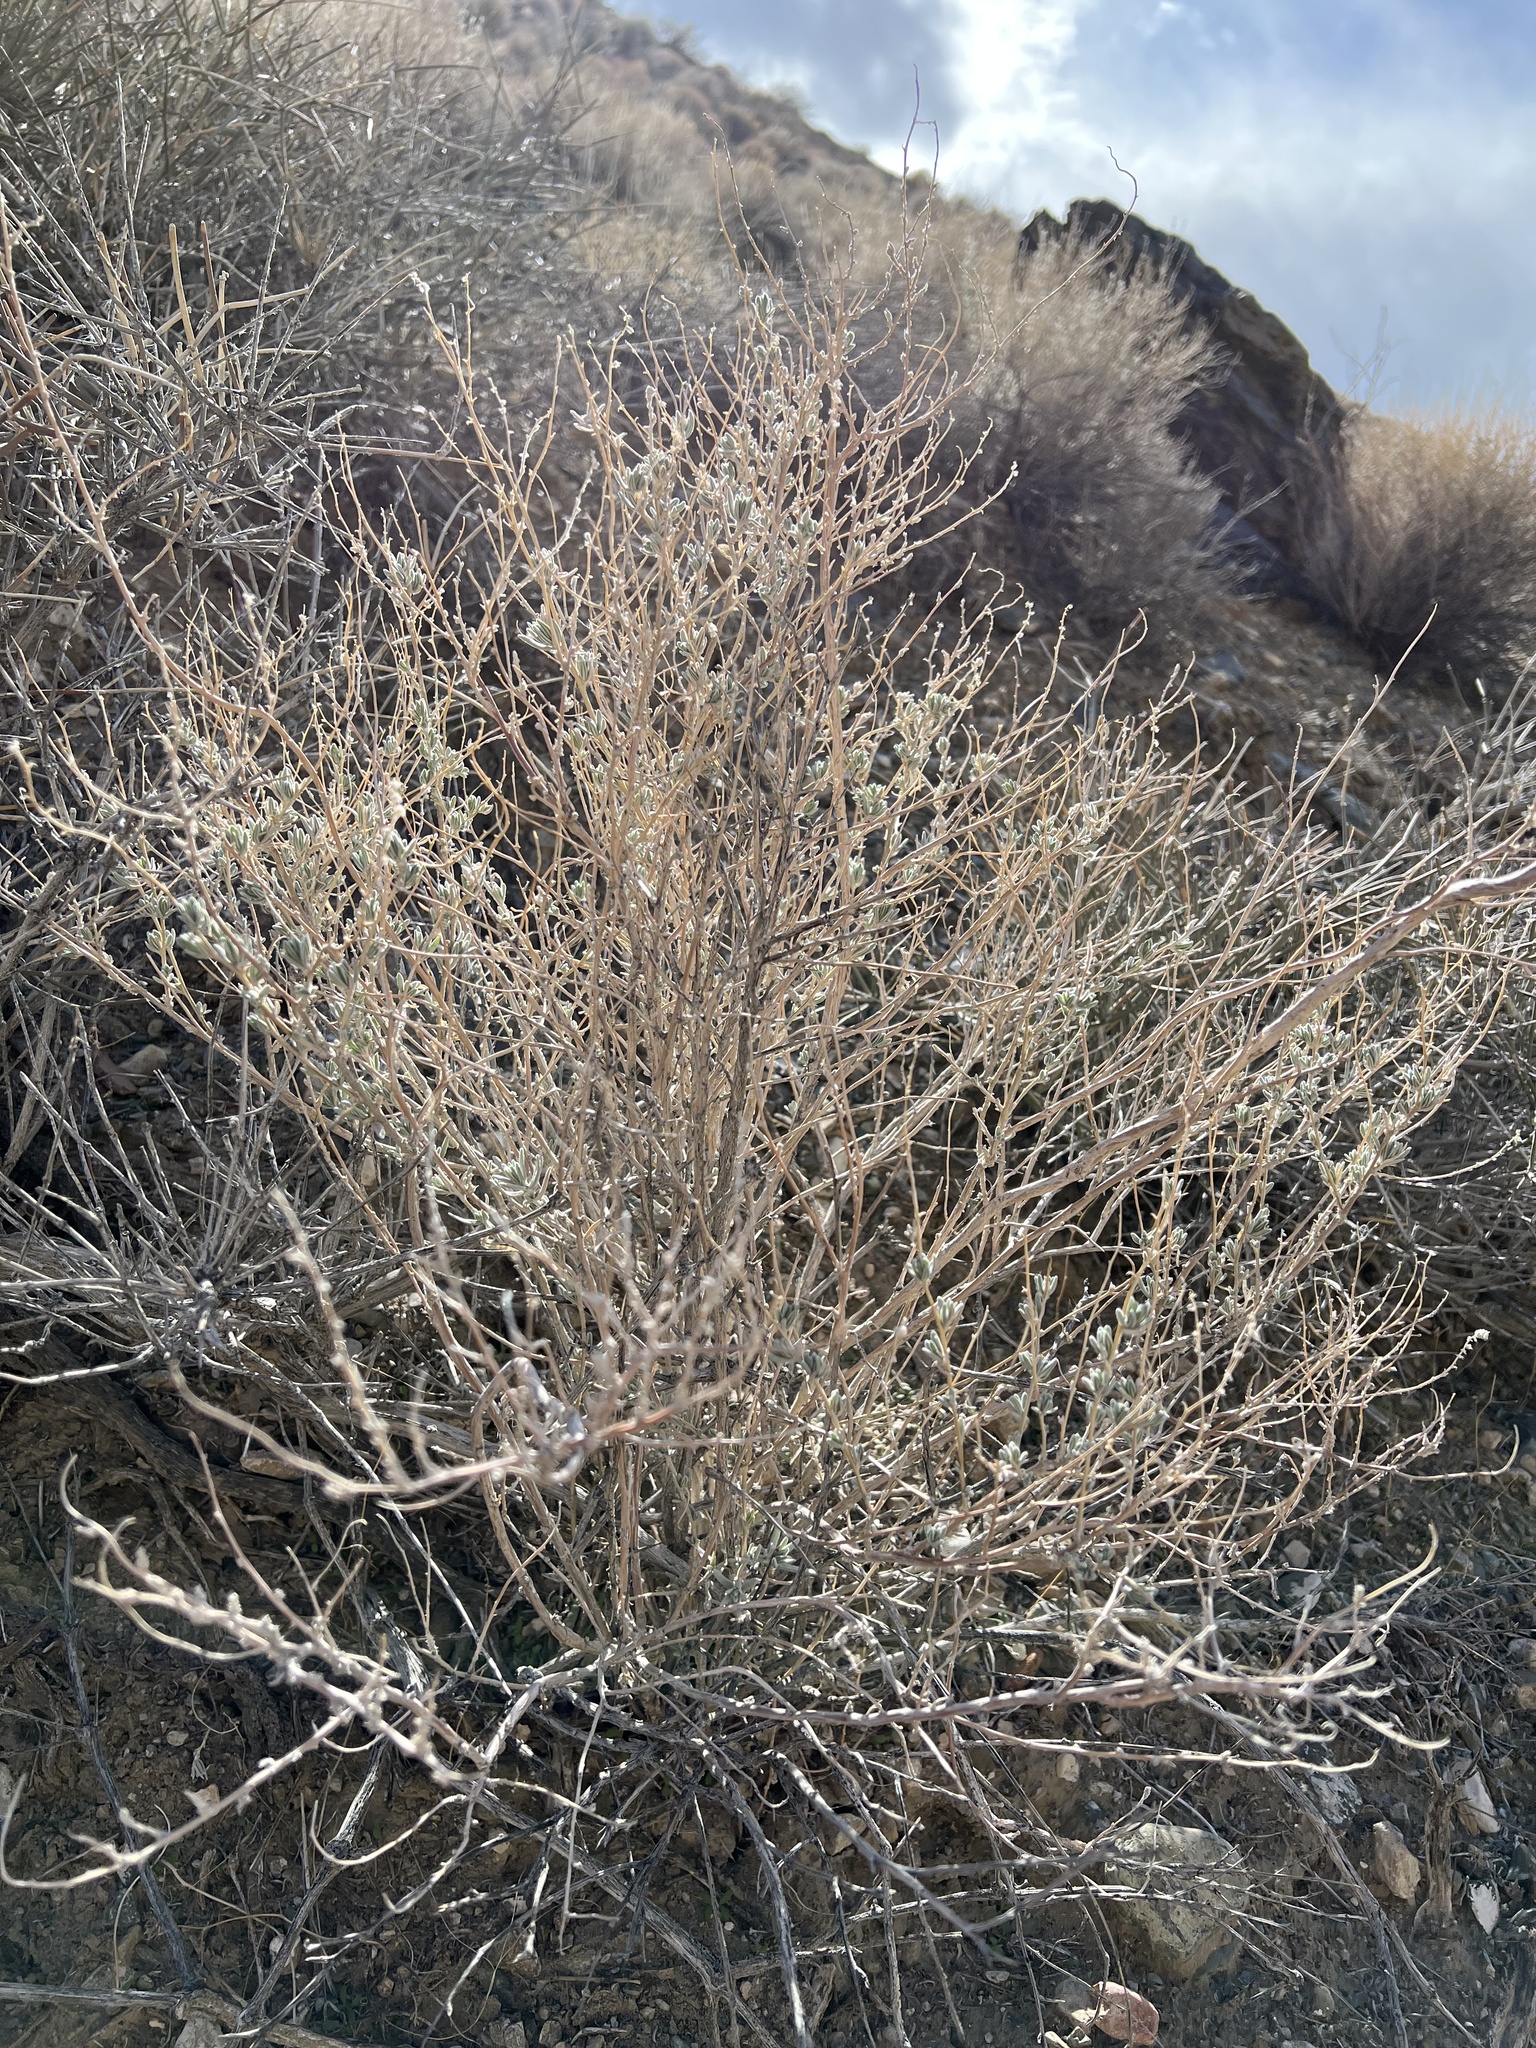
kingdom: Plantae
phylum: Tracheophyta
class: Magnoliopsida
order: Caryophyllales
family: Amaranthaceae
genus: Krascheninnikovia
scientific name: Krascheninnikovia lanata
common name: Winterfat
